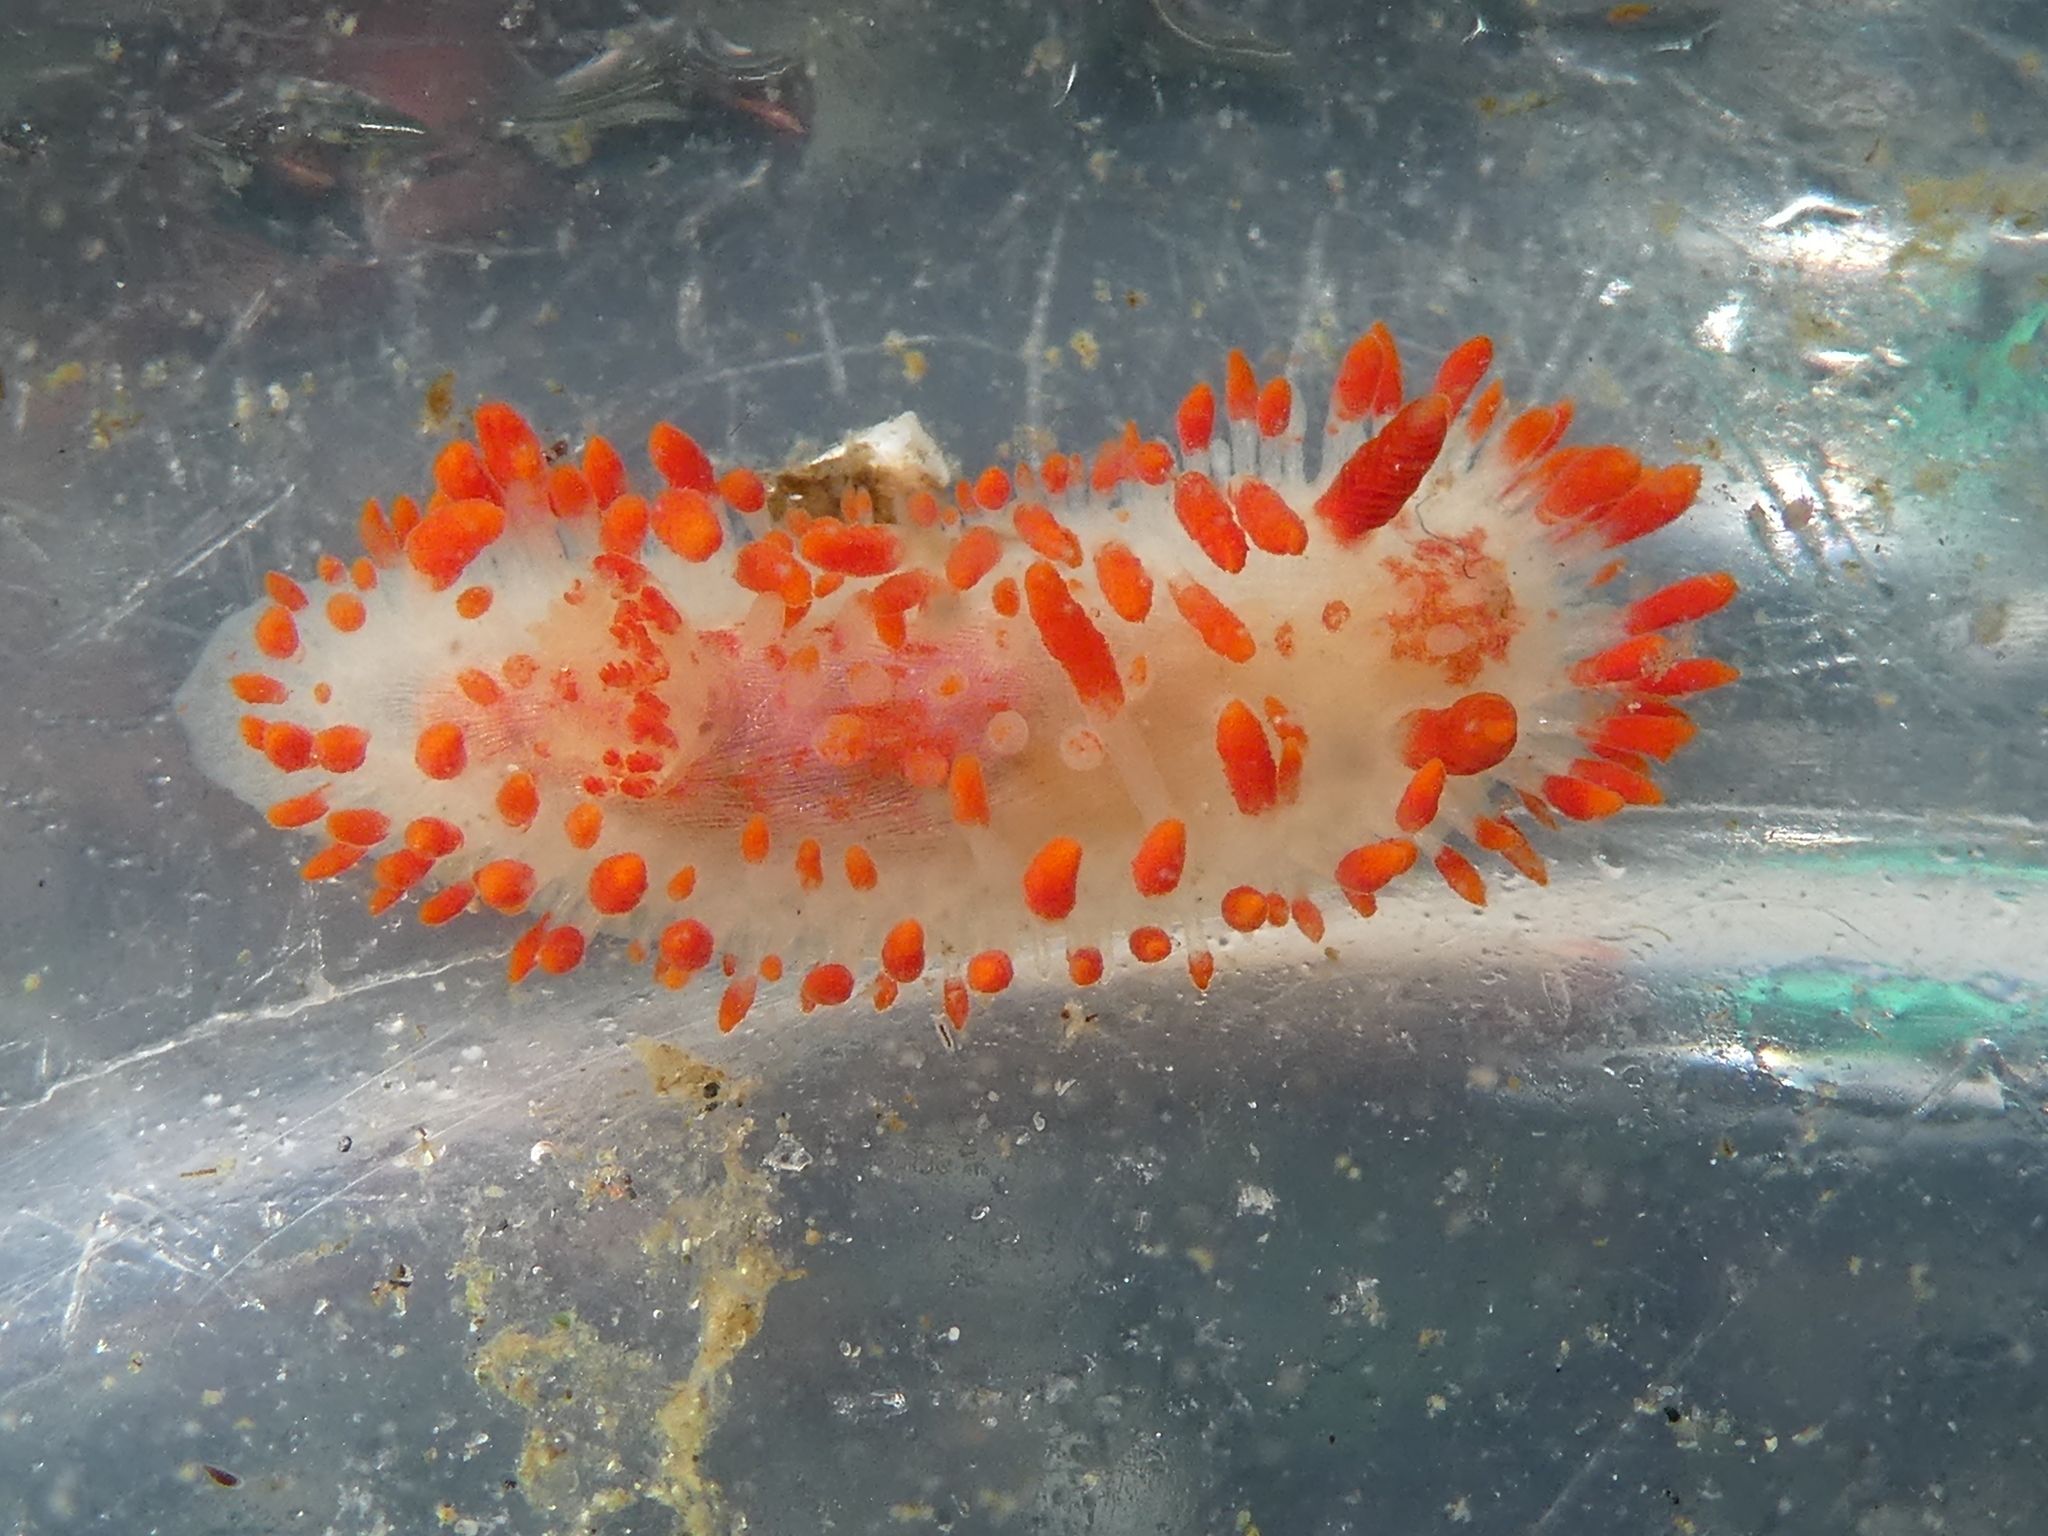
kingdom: Animalia
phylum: Mollusca
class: Gastropoda
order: Nudibranchia
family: Polyceridae
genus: Limacia
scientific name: Limacia cockerelli
